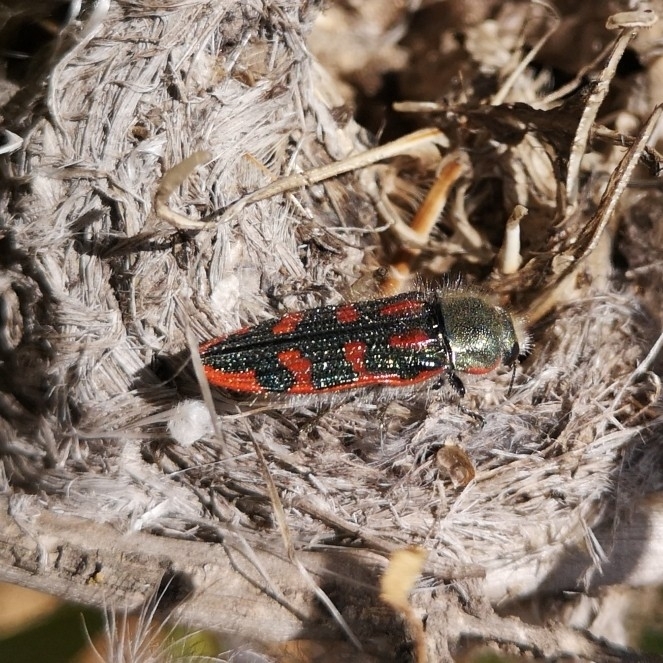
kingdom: Animalia
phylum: Arthropoda
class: Insecta
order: Coleoptera
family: Buprestidae
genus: Lasionota
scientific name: Lasionota cupricollis
